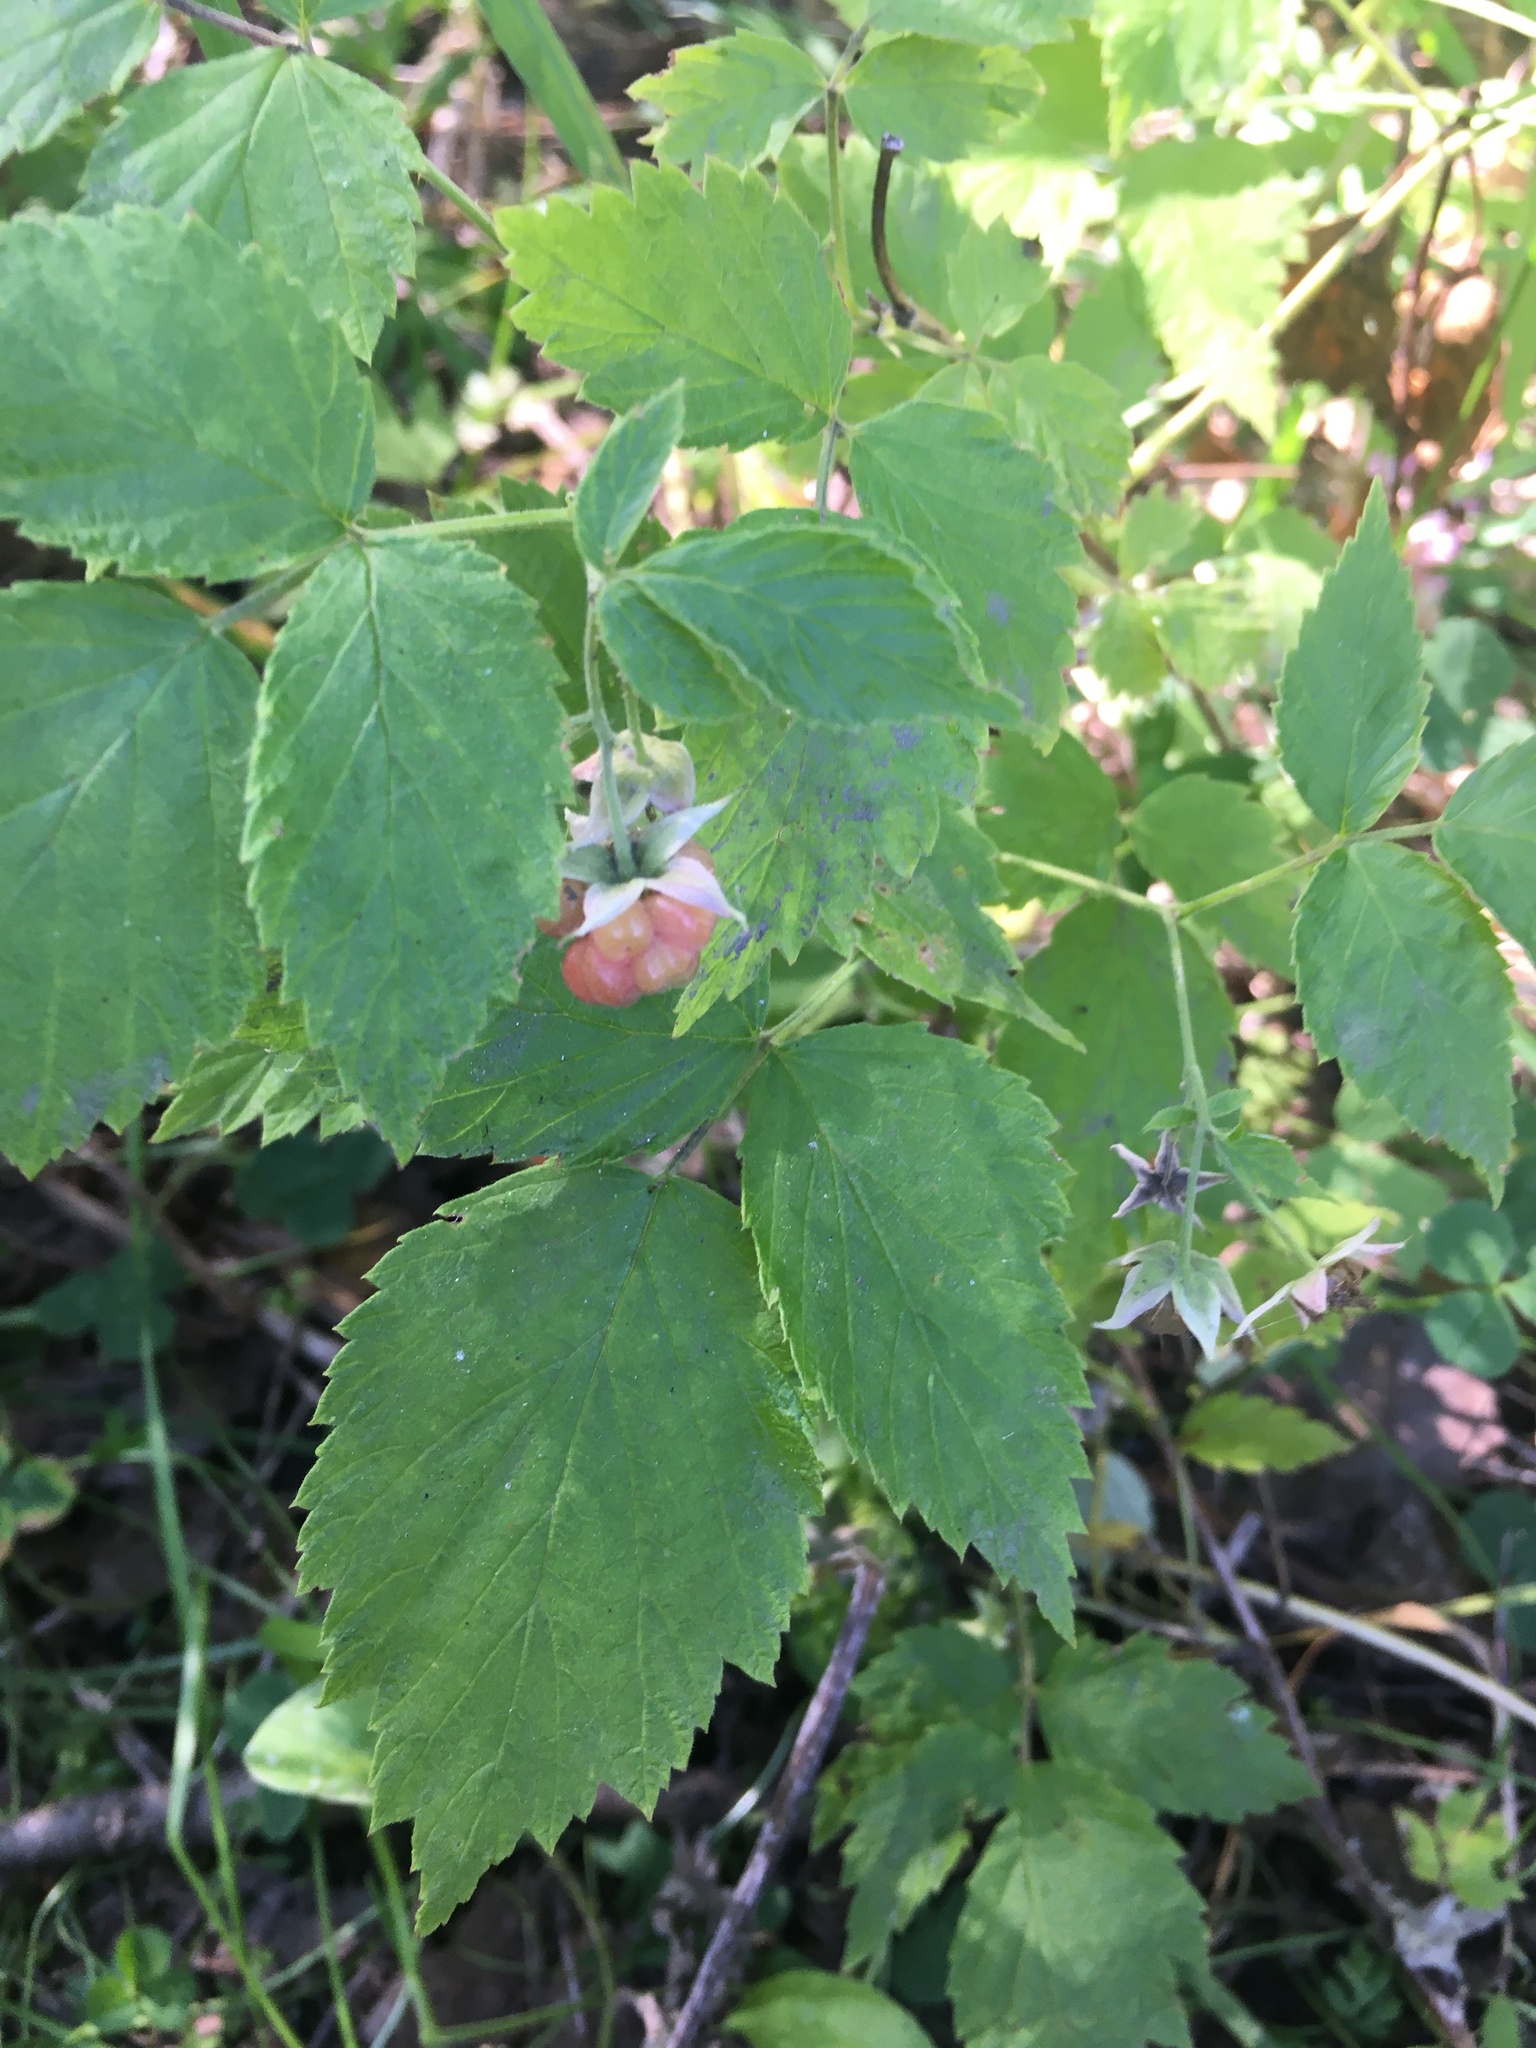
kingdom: Plantae
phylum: Tracheophyta
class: Magnoliopsida
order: Rosales
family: Rosaceae
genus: Rubus
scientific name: Rubus idaeus
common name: Raspberry
